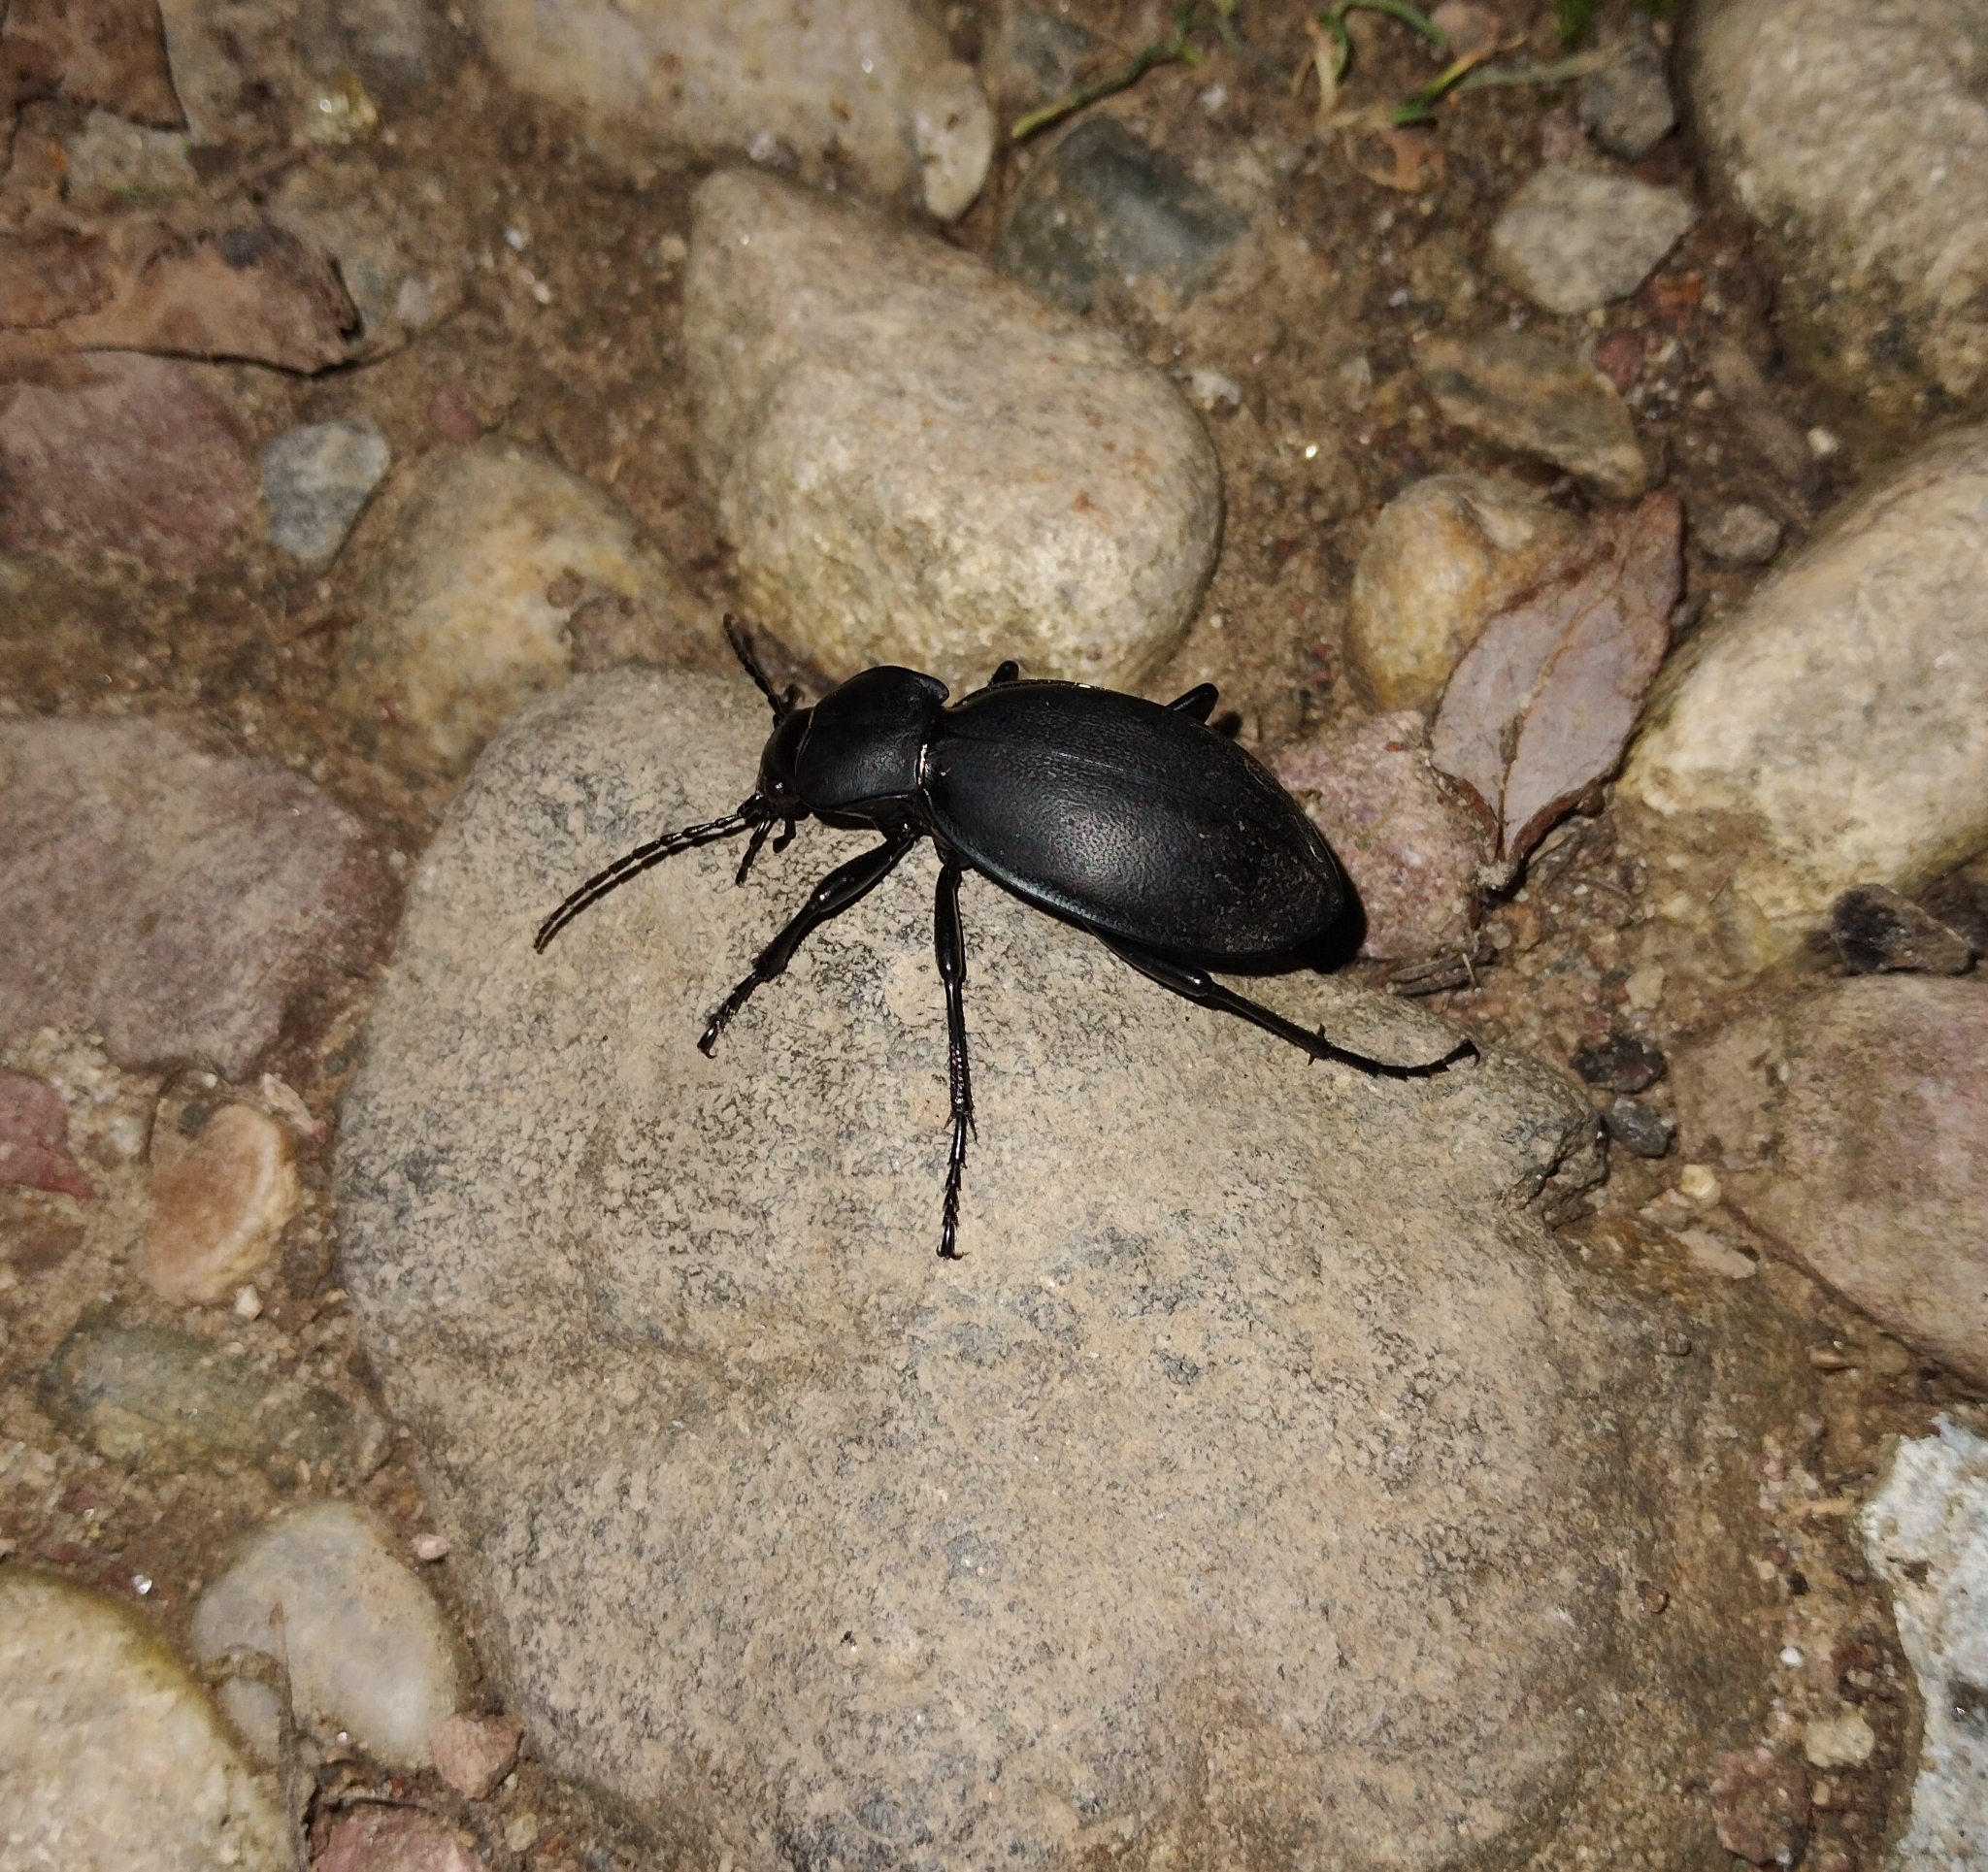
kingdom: Animalia
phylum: Arthropoda
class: Insecta
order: Coleoptera
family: Carabidae
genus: Carabus
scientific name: Carabus coriaceus
